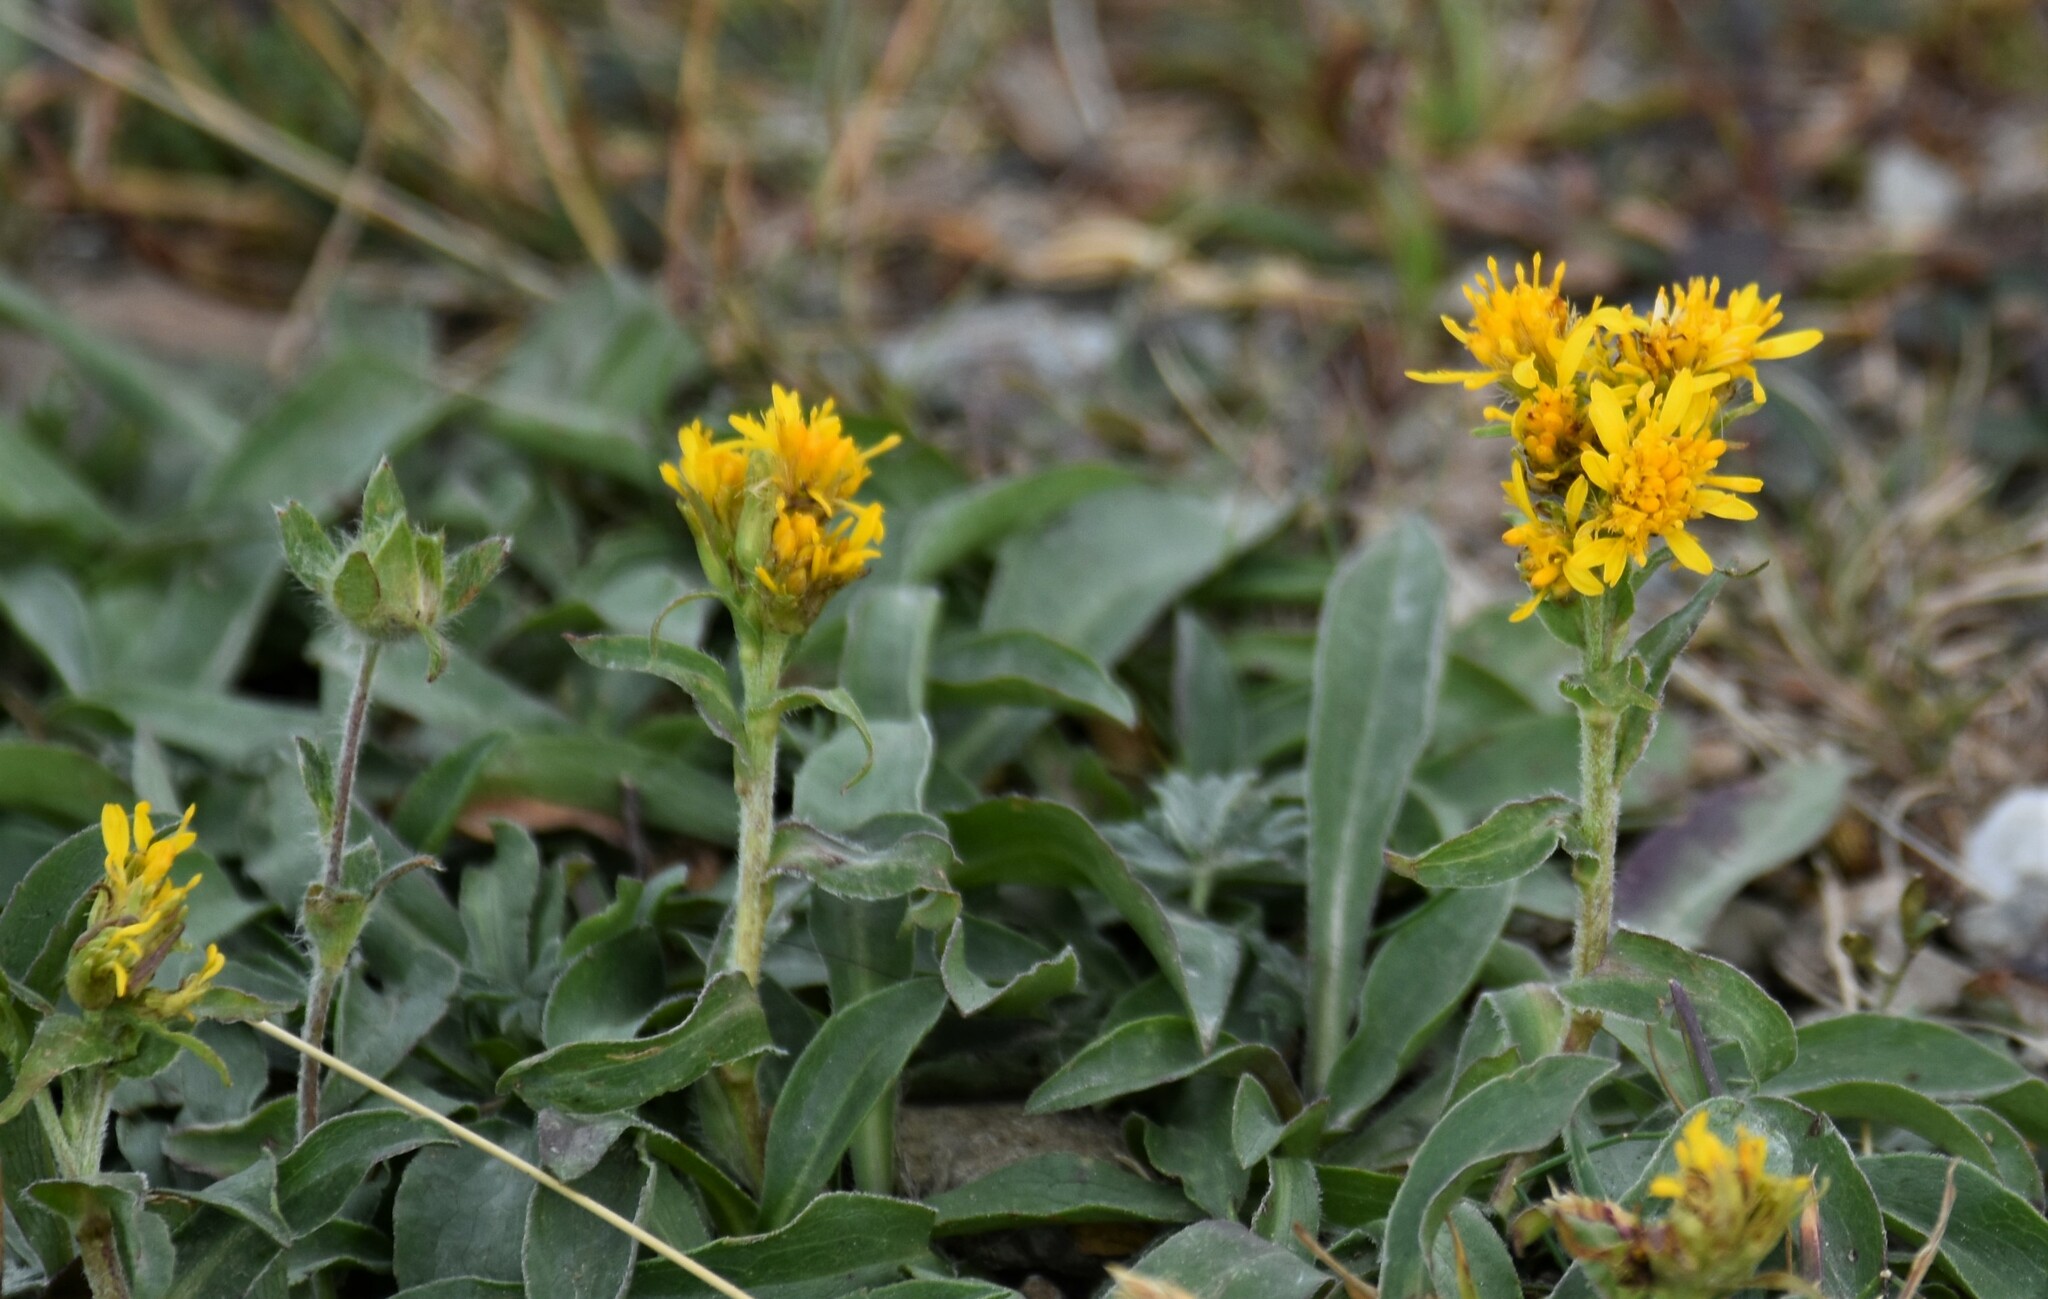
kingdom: Plantae
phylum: Tracheophyta
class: Magnoliopsida
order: Asterales
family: Asteraceae
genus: Solidago
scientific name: Solidago multiradiata
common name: Northern goldenrod
